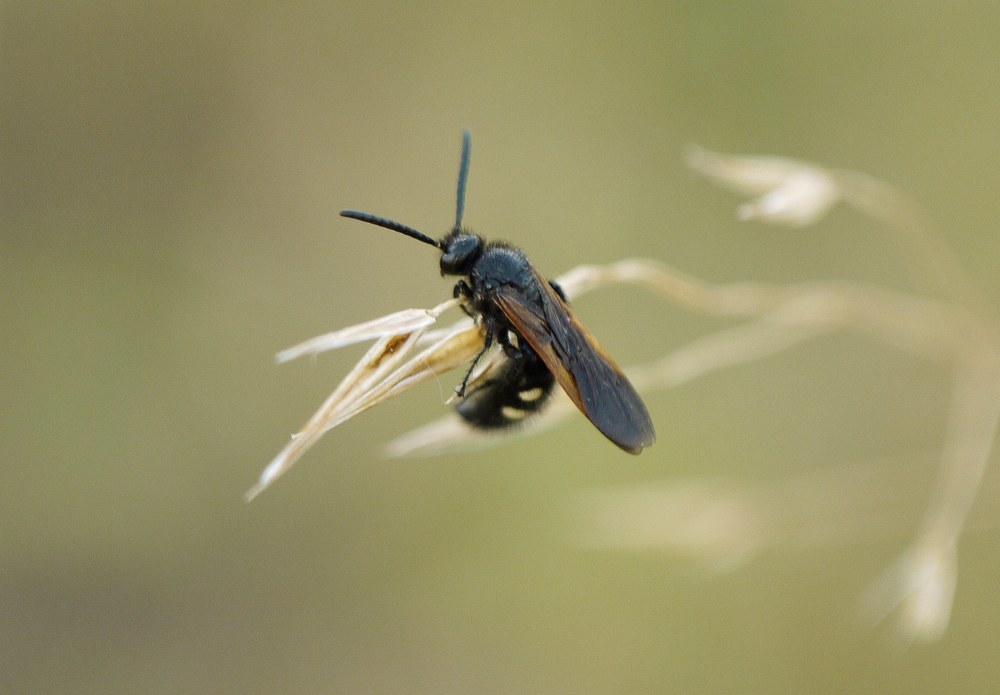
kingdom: Animalia
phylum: Arthropoda
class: Insecta
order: Hymenoptera
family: Vespidae
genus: Vespa
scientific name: Vespa sexmaculata
